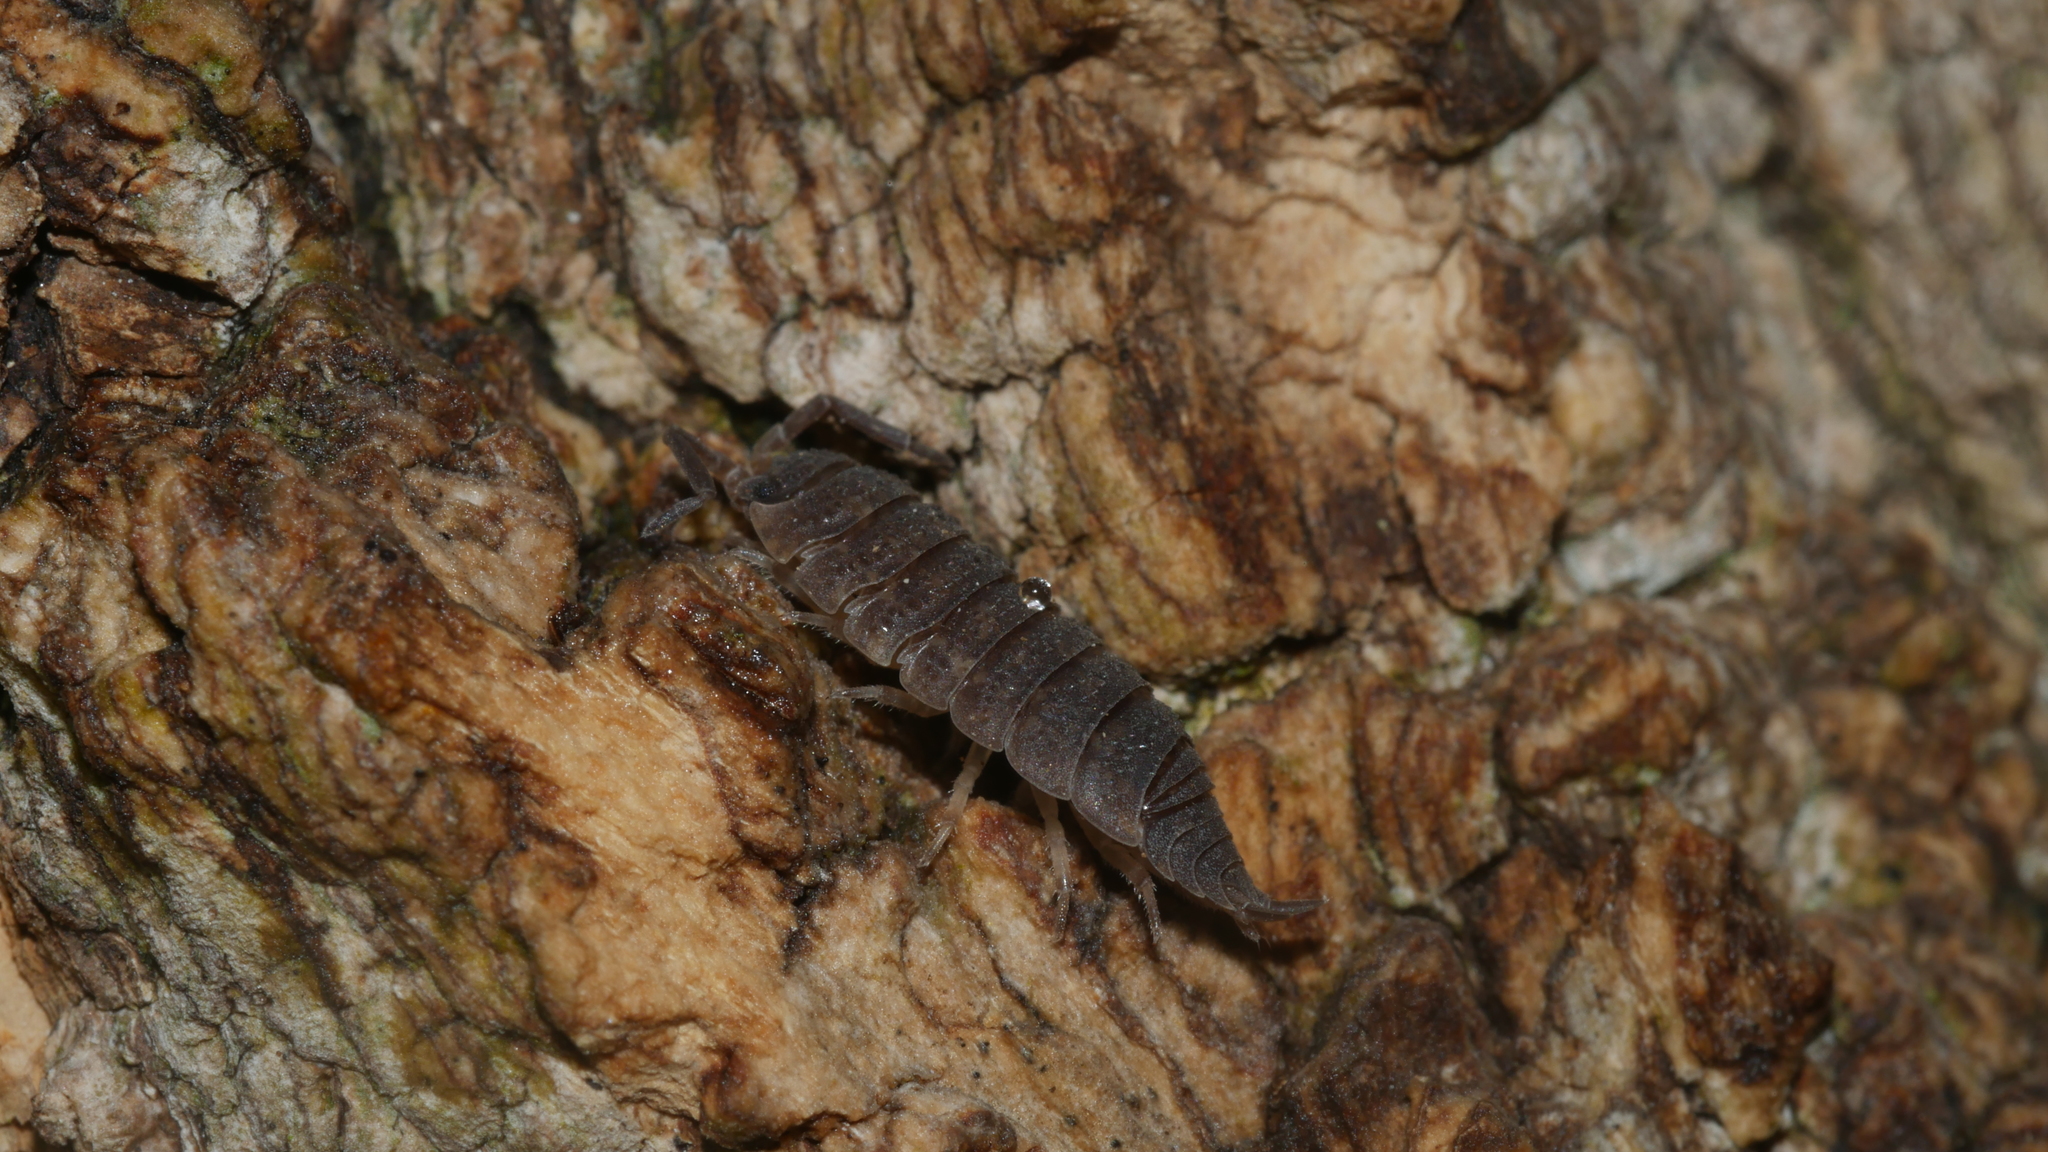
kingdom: Animalia
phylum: Arthropoda
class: Malacostraca
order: Isopoda
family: Porcellionidae
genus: Porcellio
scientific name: Porcellio scaber
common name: Common rough woodlouse
